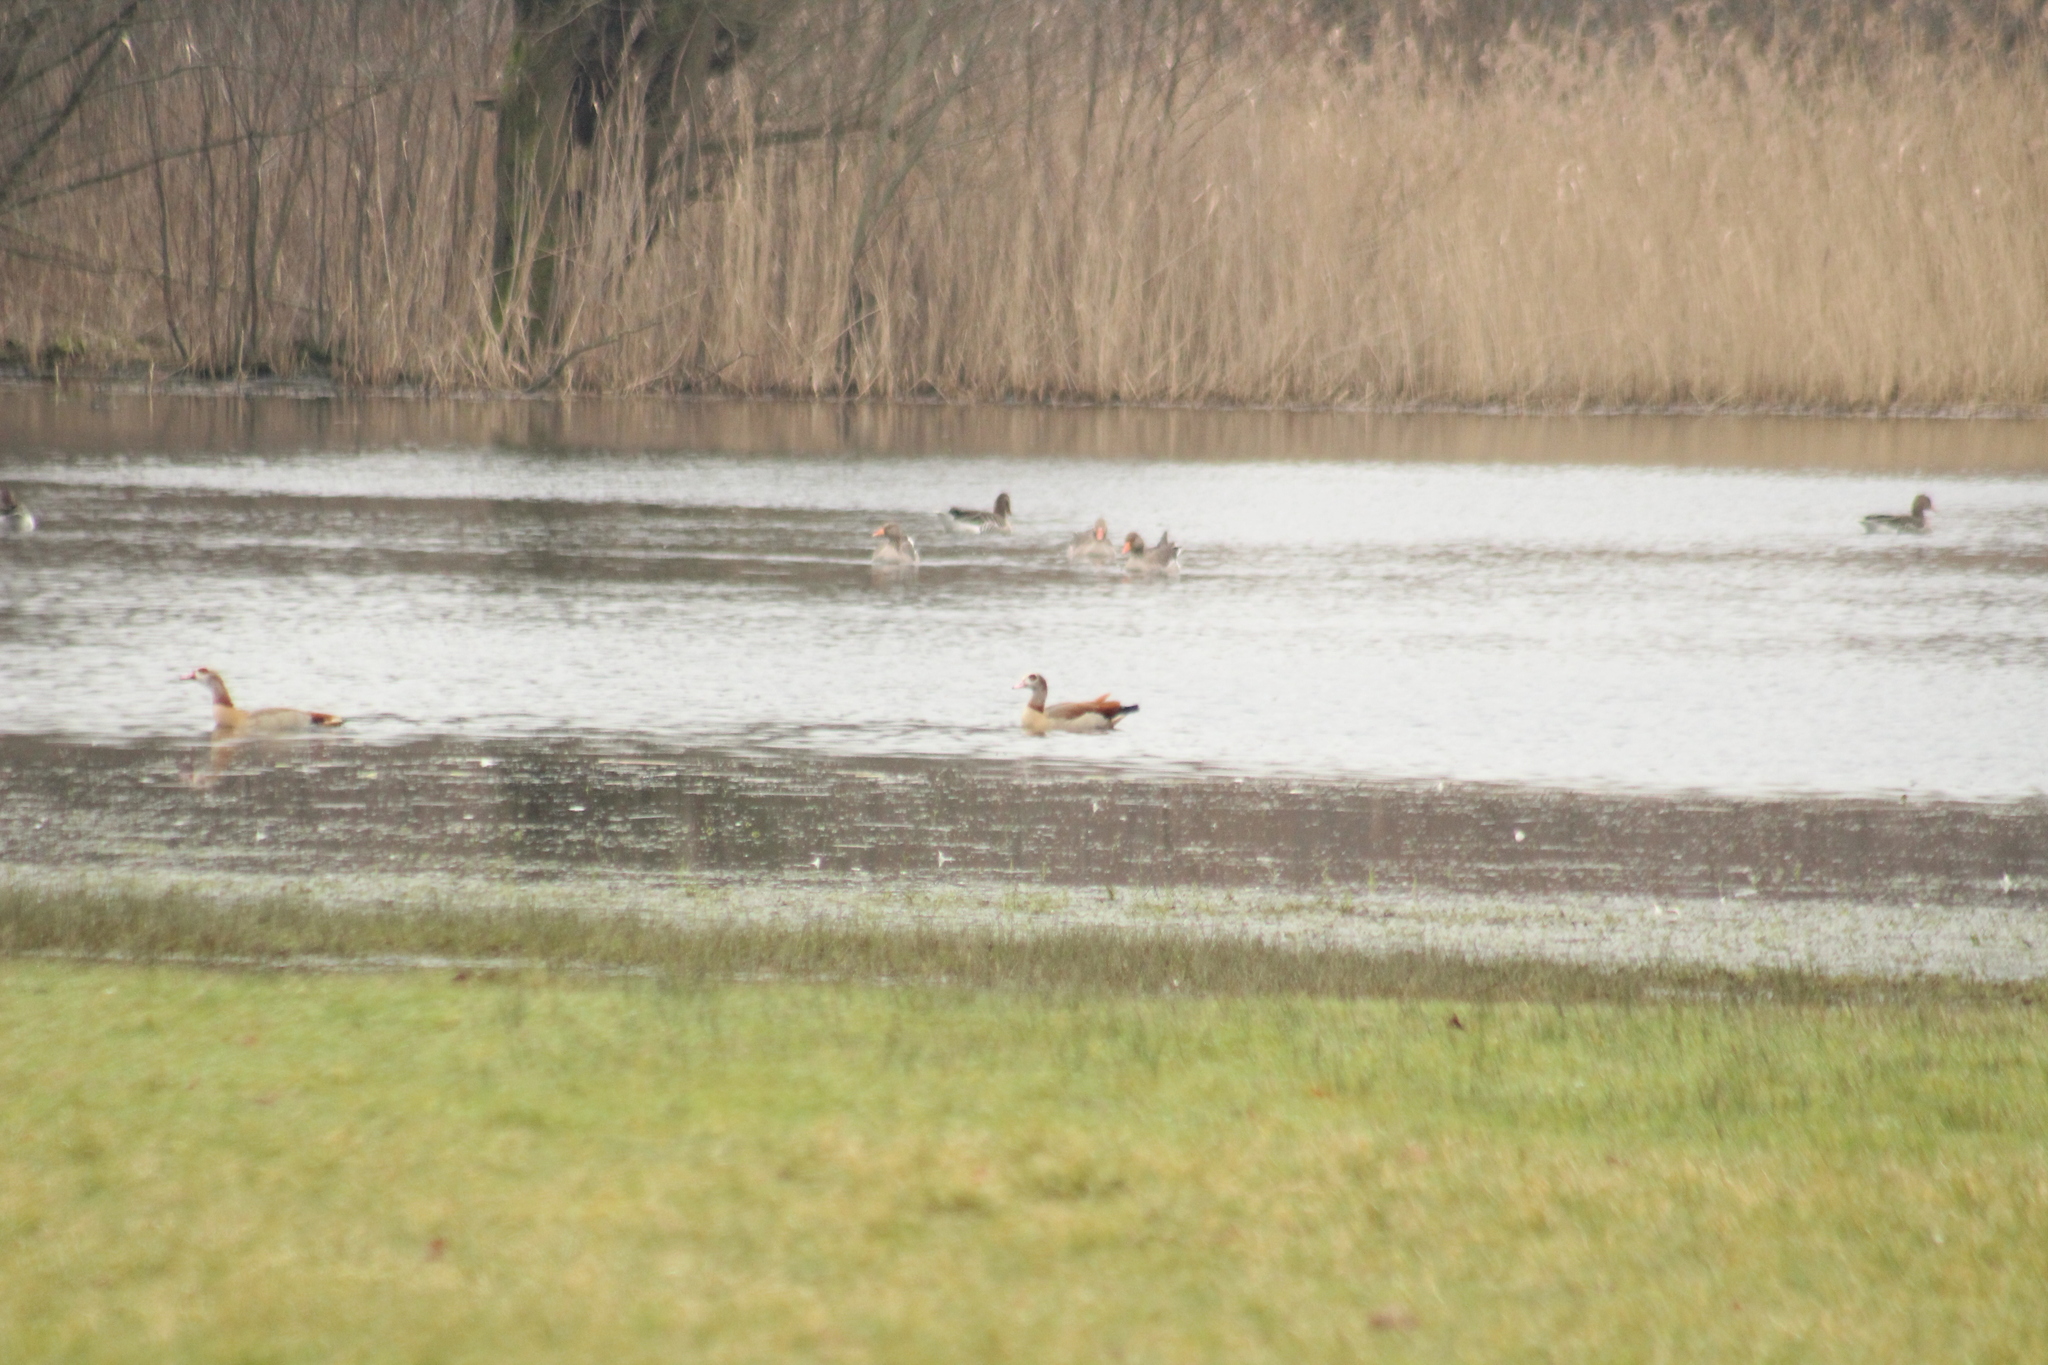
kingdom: Animalia
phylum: Chordata
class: Aves
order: Anseriformes
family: Anatidae
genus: Alopochen
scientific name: Alopochen aegyptiaca
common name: Egyptian goose
